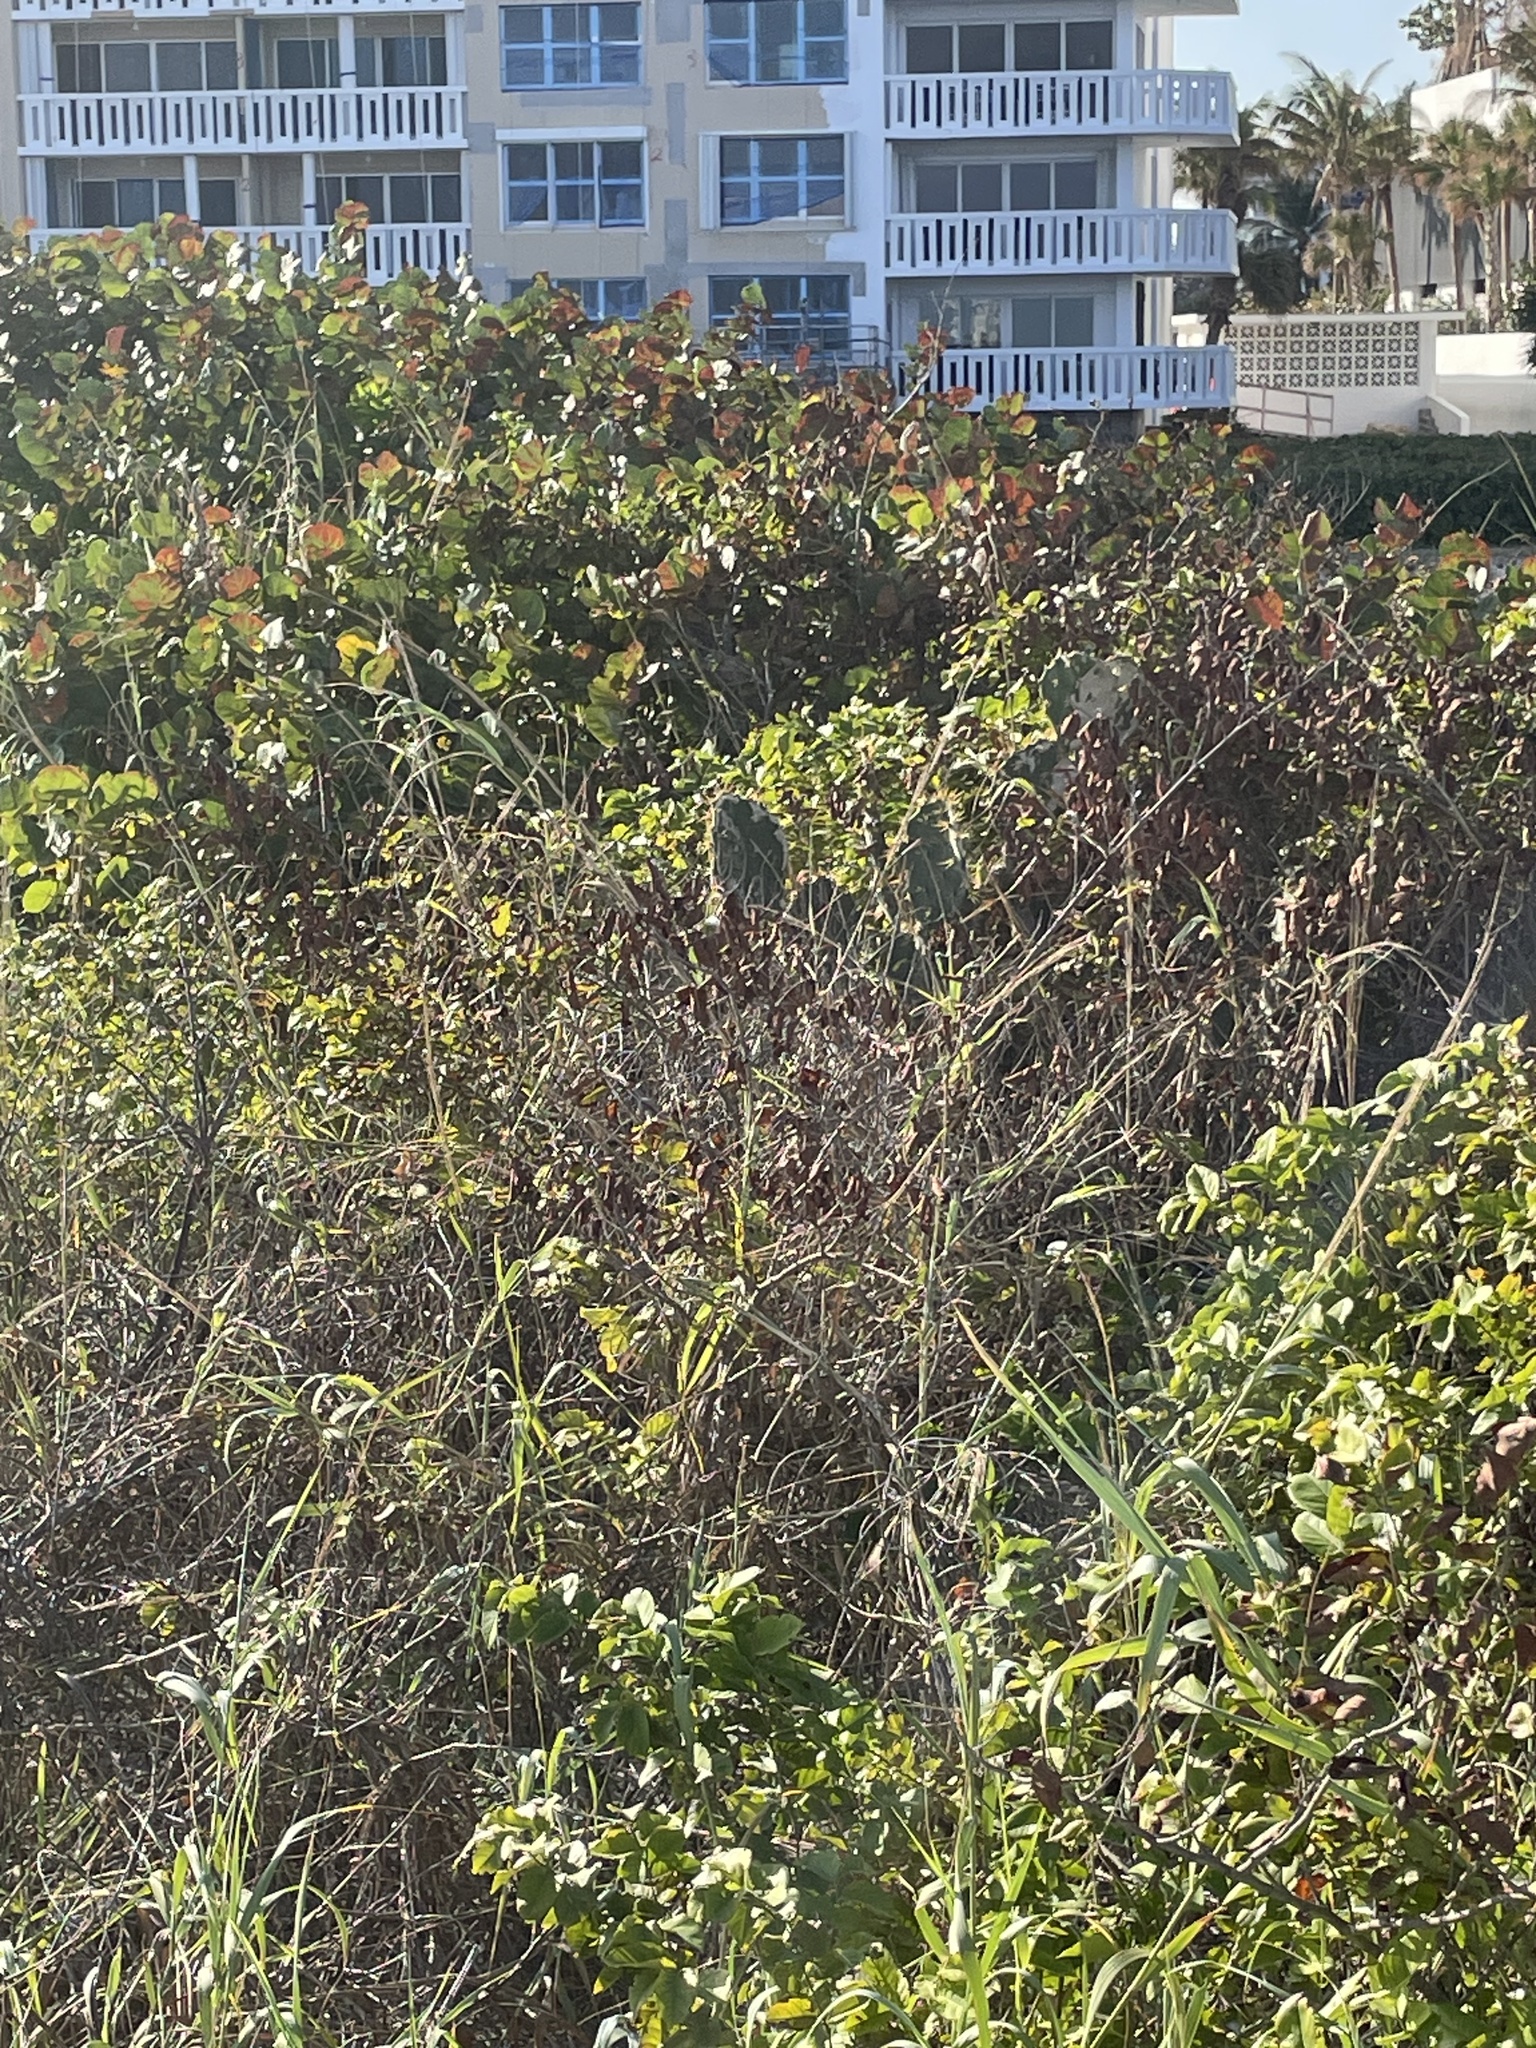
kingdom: Plantae
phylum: Tracheophyta
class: Magnoliopsida
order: Caryophyllales
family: Cactaceae
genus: Opuntia
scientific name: Opuntia dillenii
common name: Sour prickle
